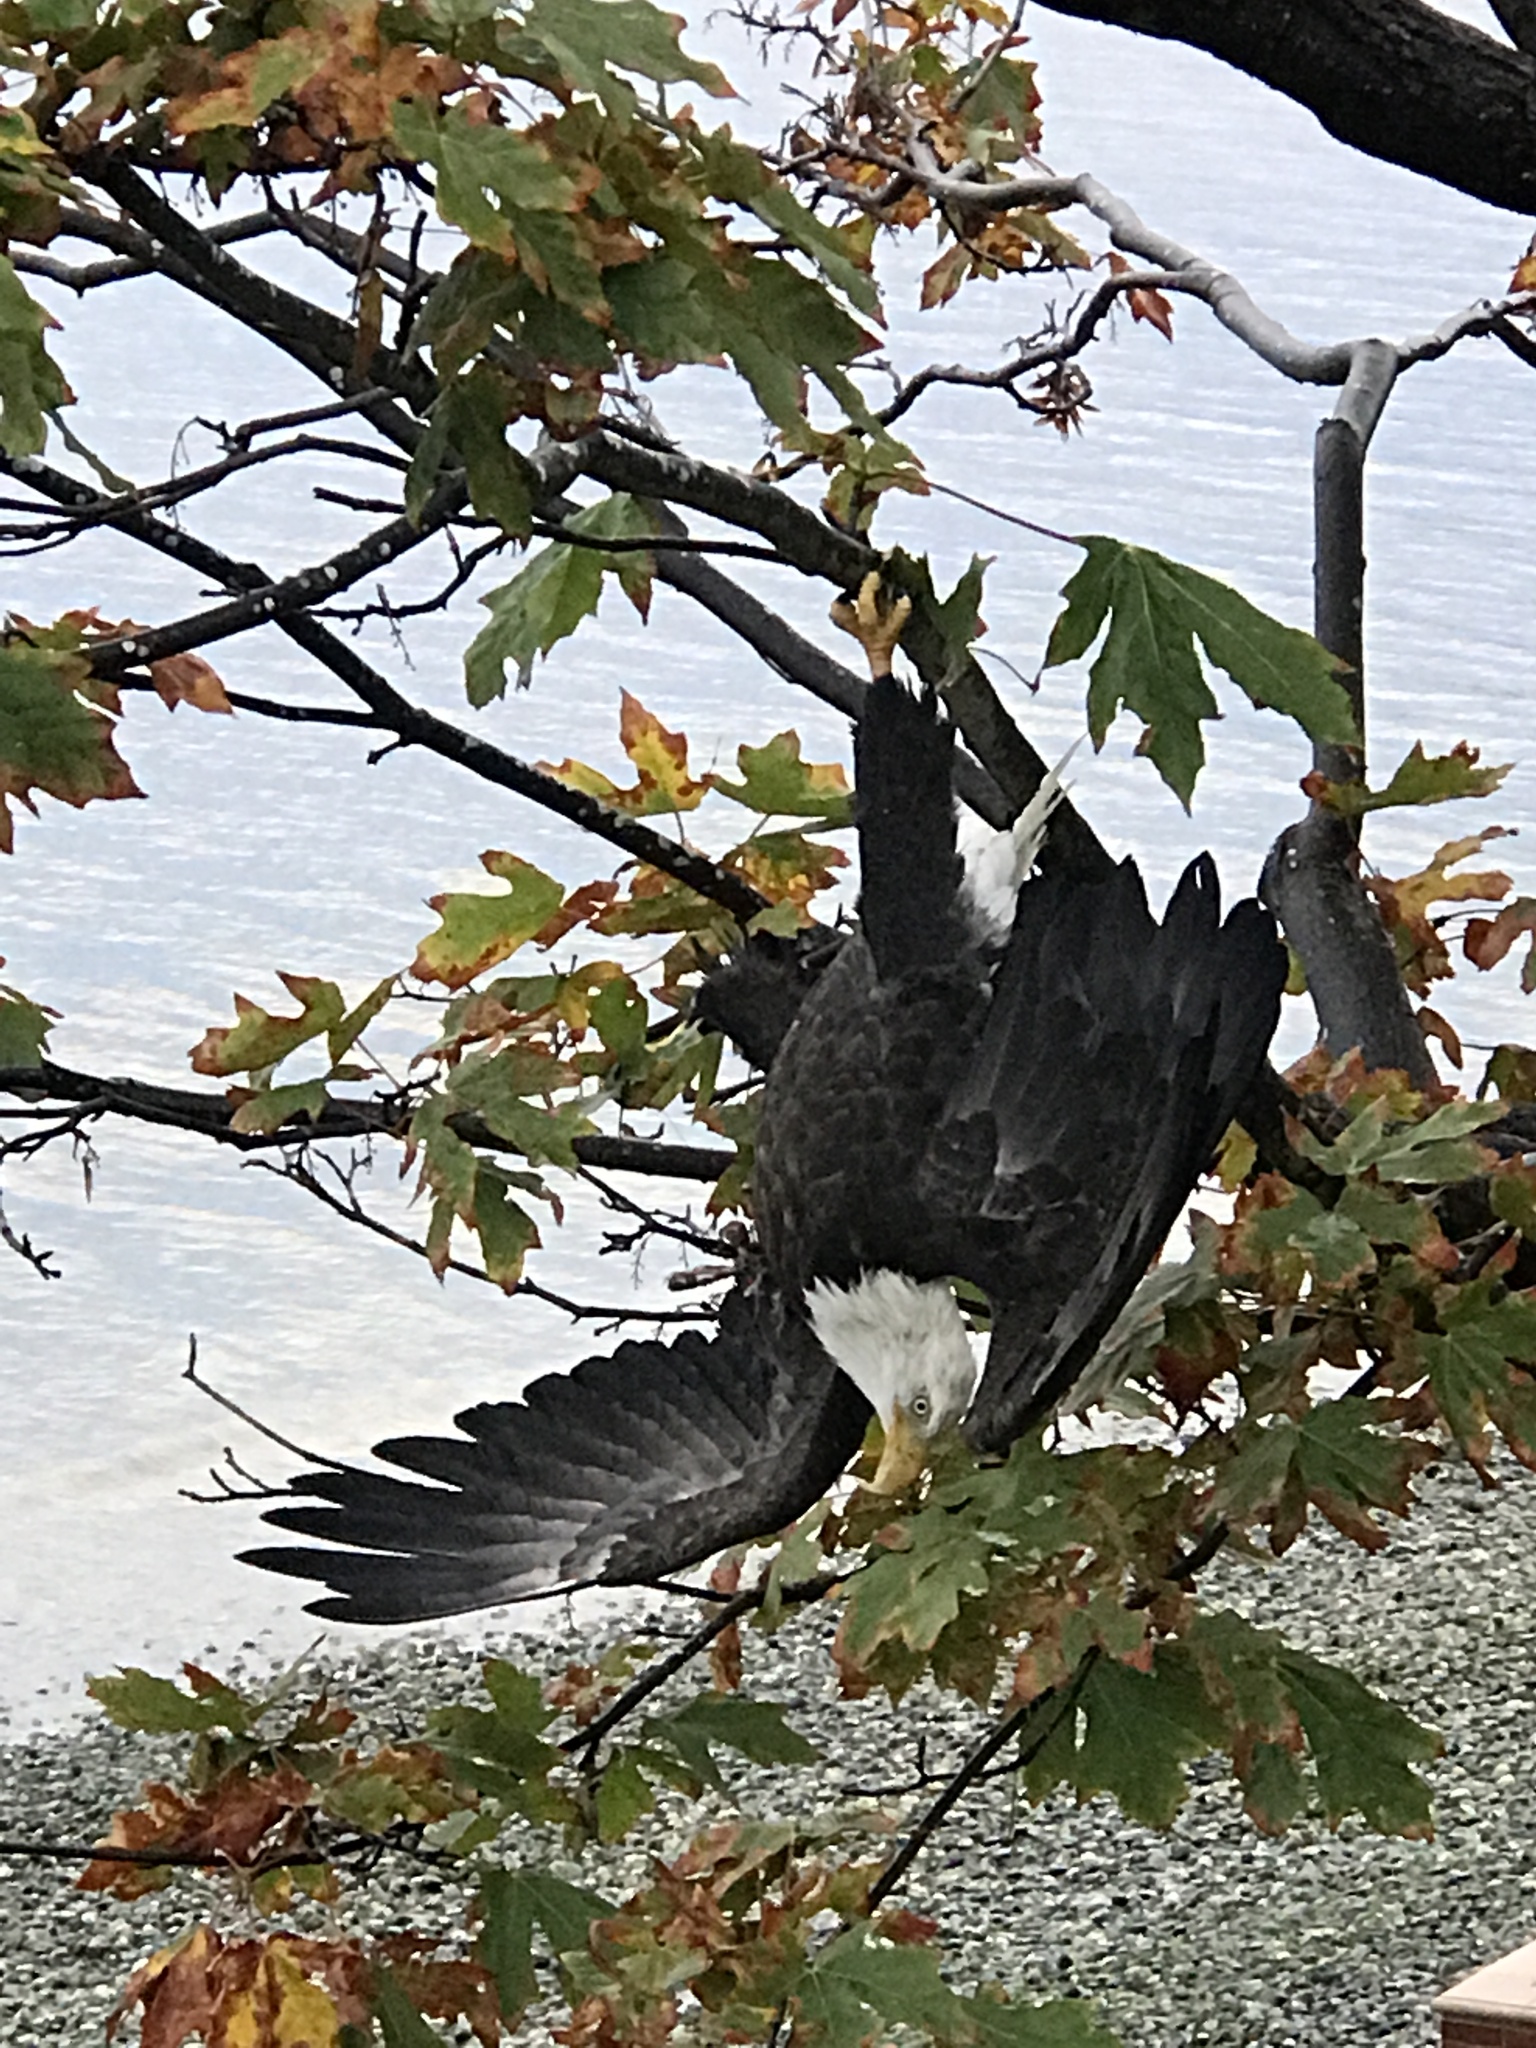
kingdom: Animalia
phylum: Chordata
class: Aves
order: Accipitriformes
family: Accipitridae
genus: Haliaeetus
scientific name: Haliaeetus leucocephalus
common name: Bald eagle
